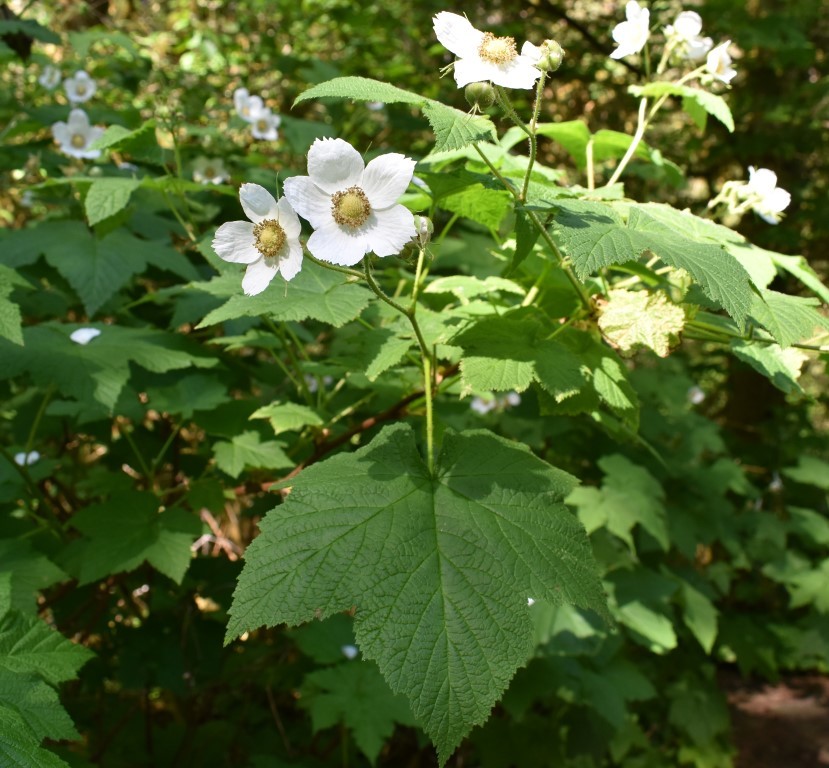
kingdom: Plantae
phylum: Tracheophyta
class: Magnoliopsida
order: Rosales
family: Rosaceae
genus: Rubus
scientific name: Rubus parviflorus
